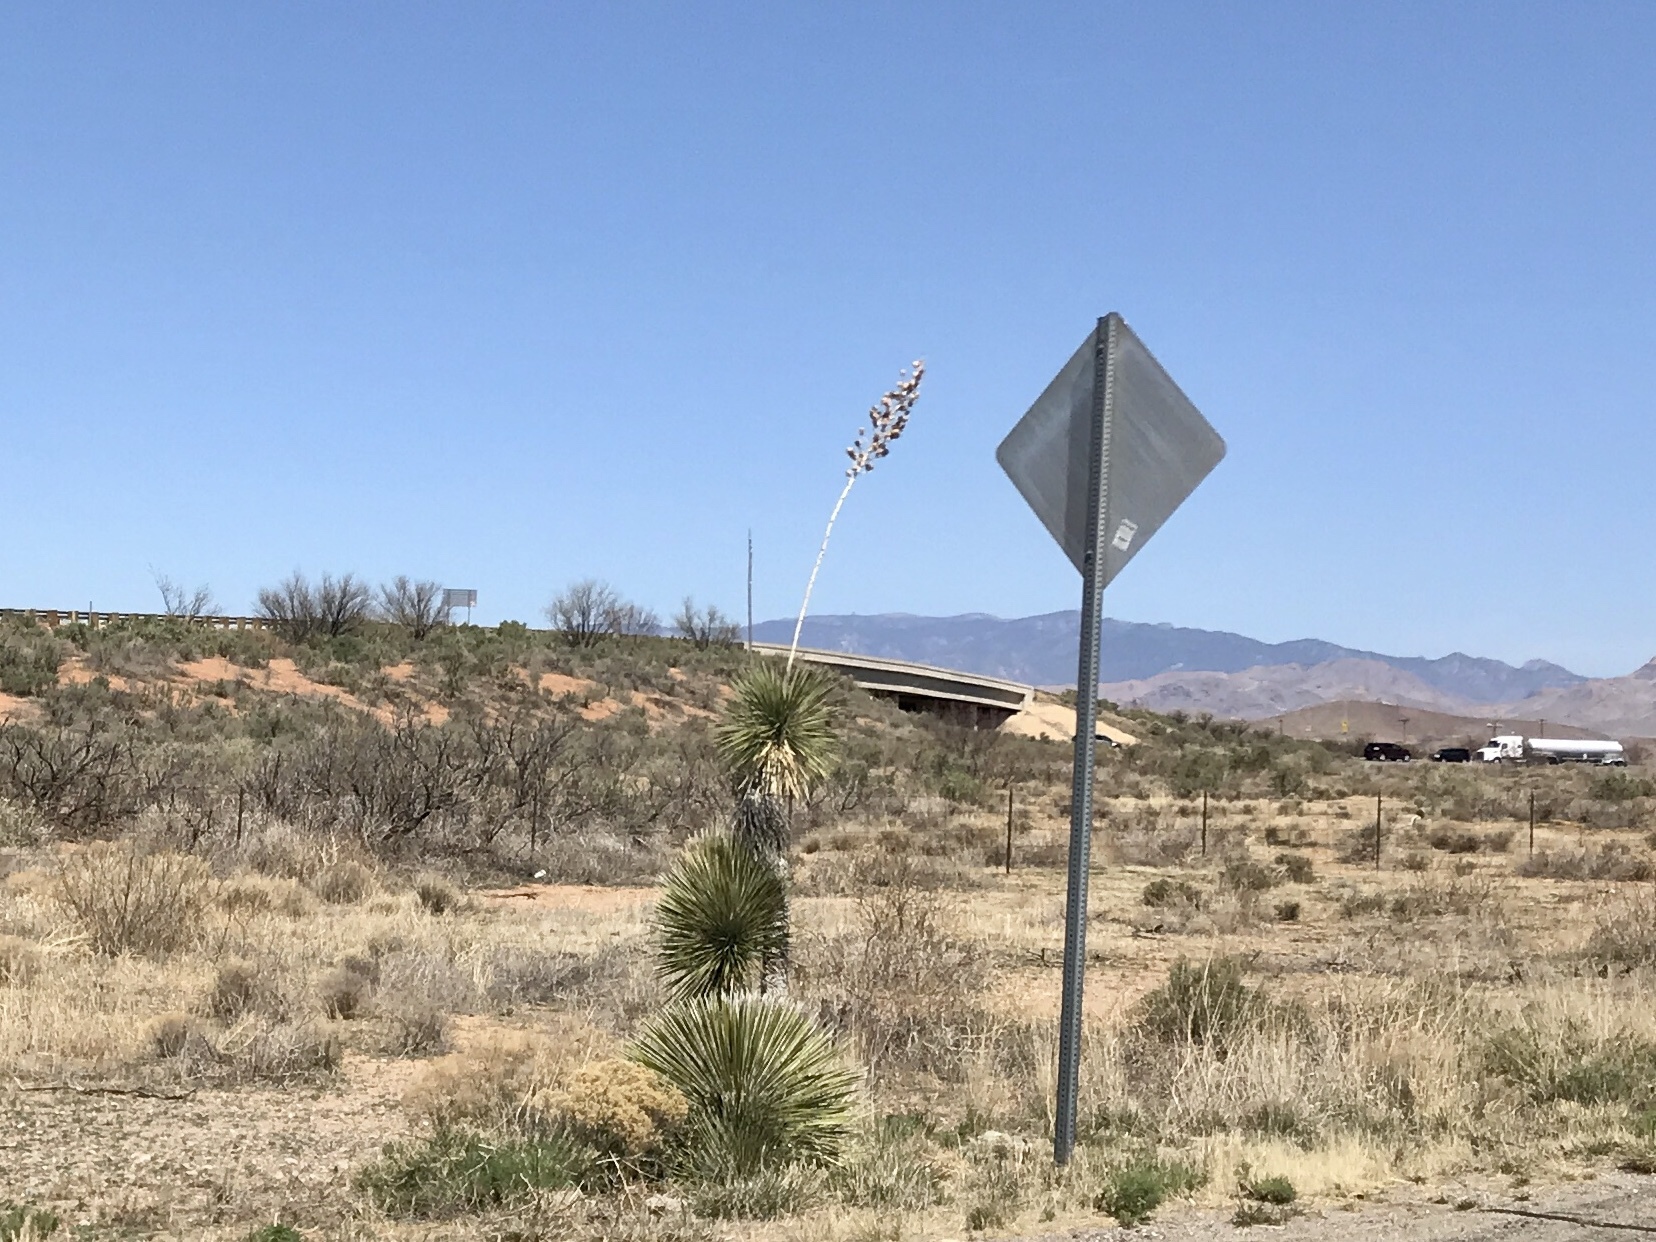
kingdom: Plantae
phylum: Tracheophyta
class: Liliopsida
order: Asparagales
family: Asparagaceae
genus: Yucca
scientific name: Yucca elata
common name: Palmella
